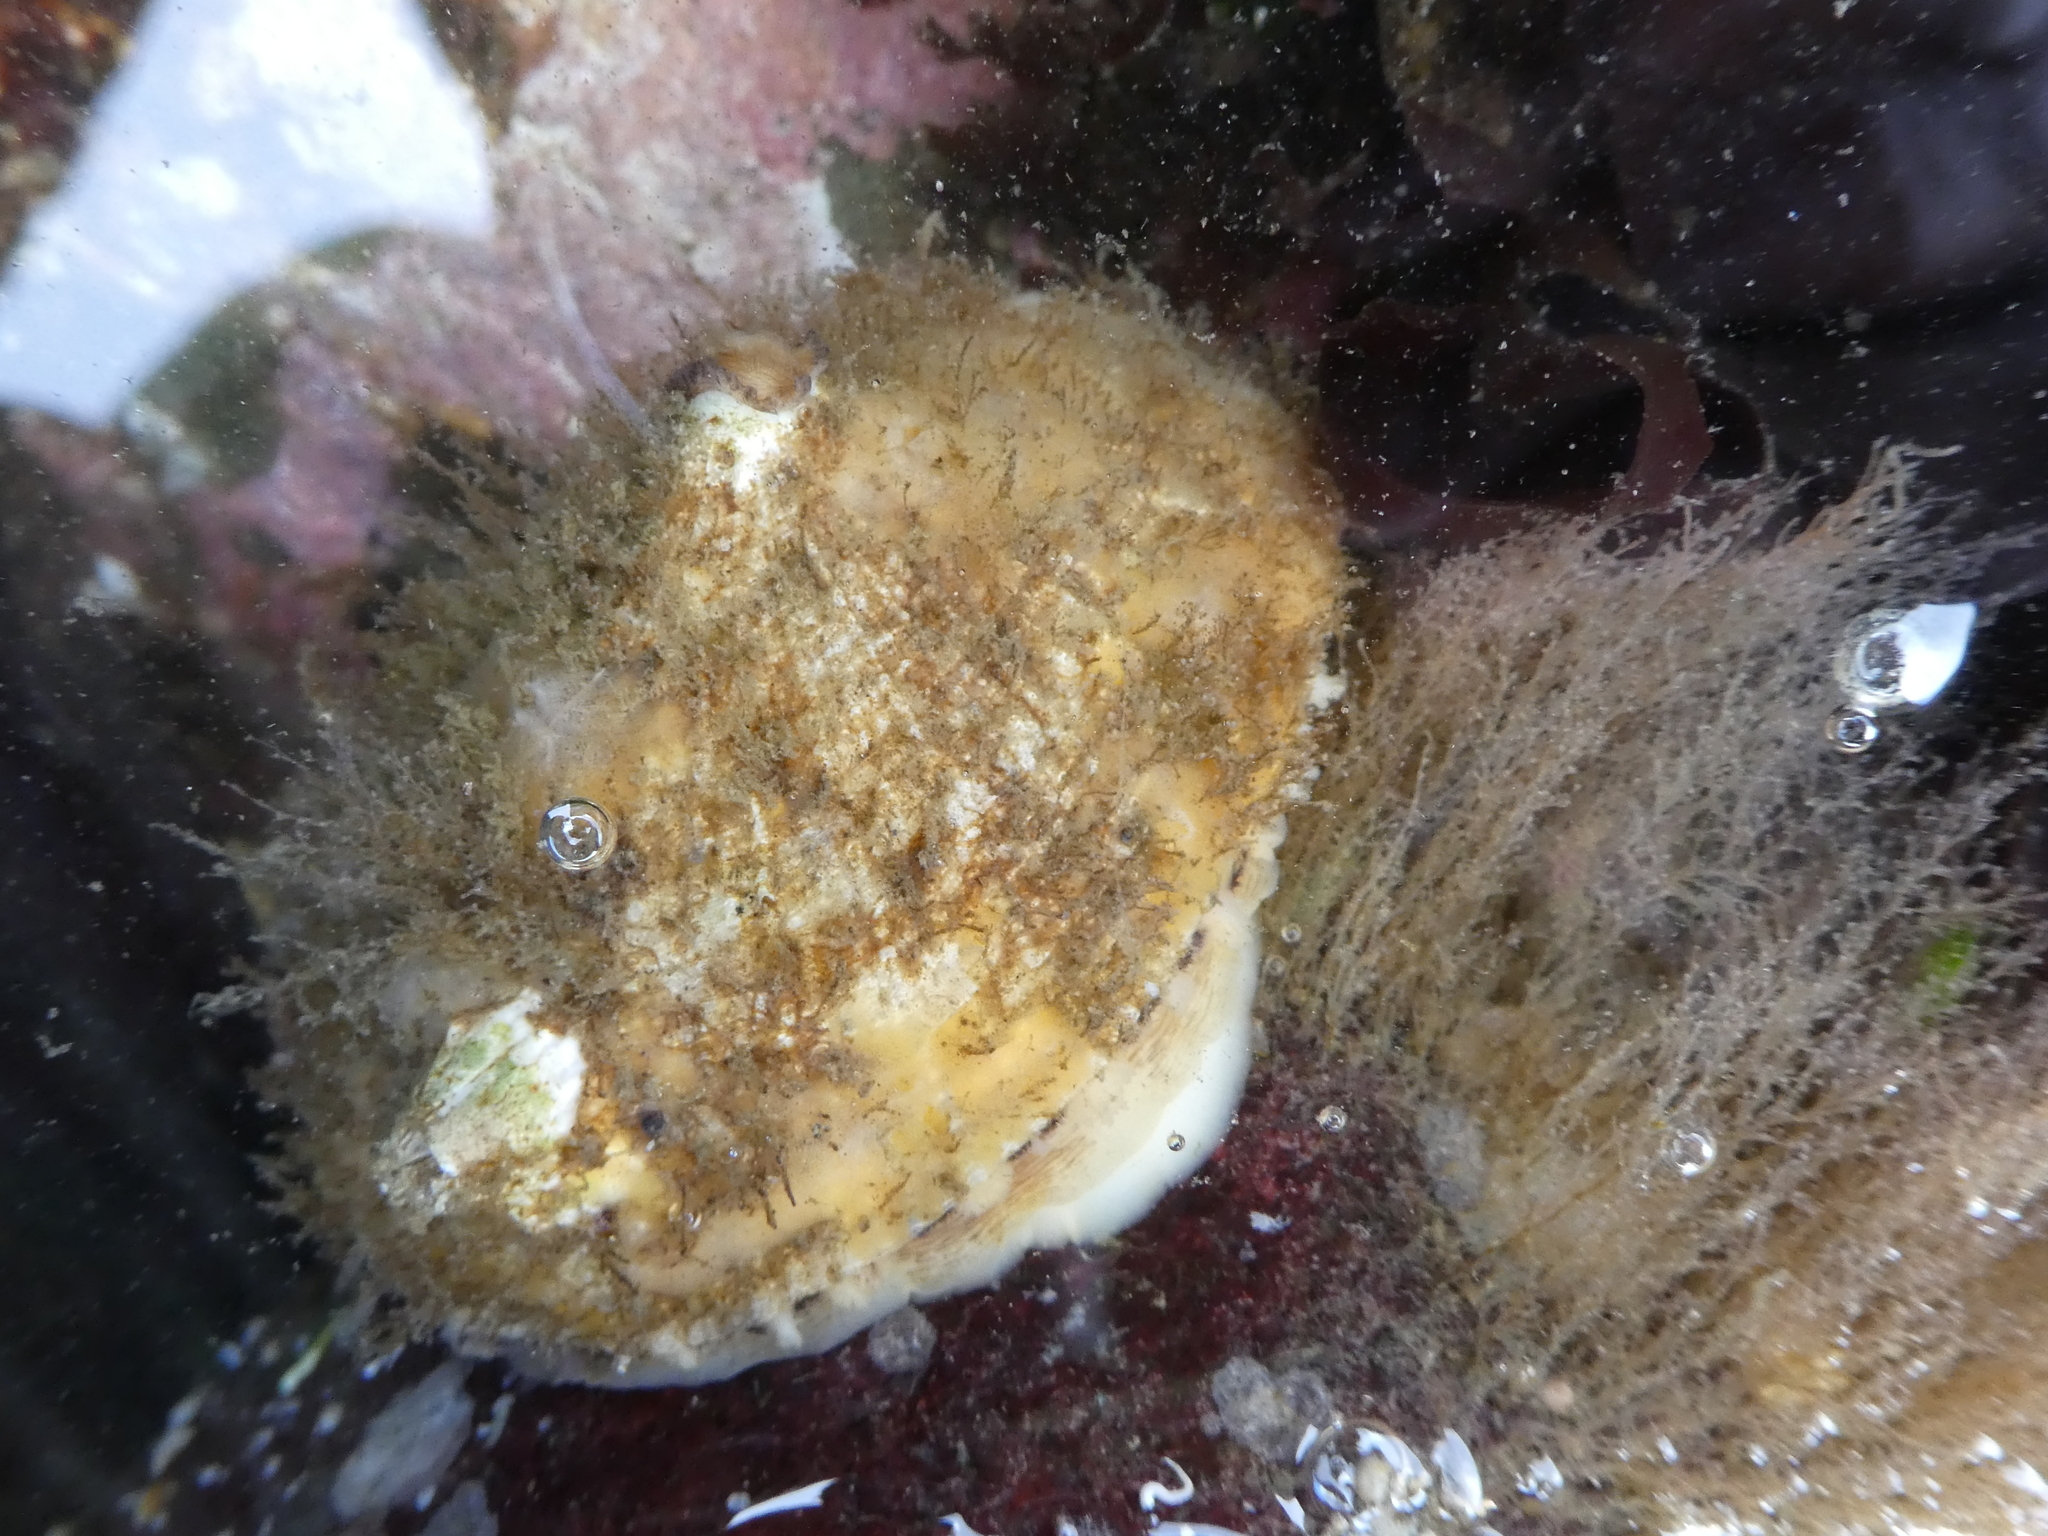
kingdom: Animalia
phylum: Mollusca
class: Gastropoda
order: Lepetellida
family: Fissurellidae
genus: Diodora
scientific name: Diodora aspera
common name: Rough keyhole limpet
